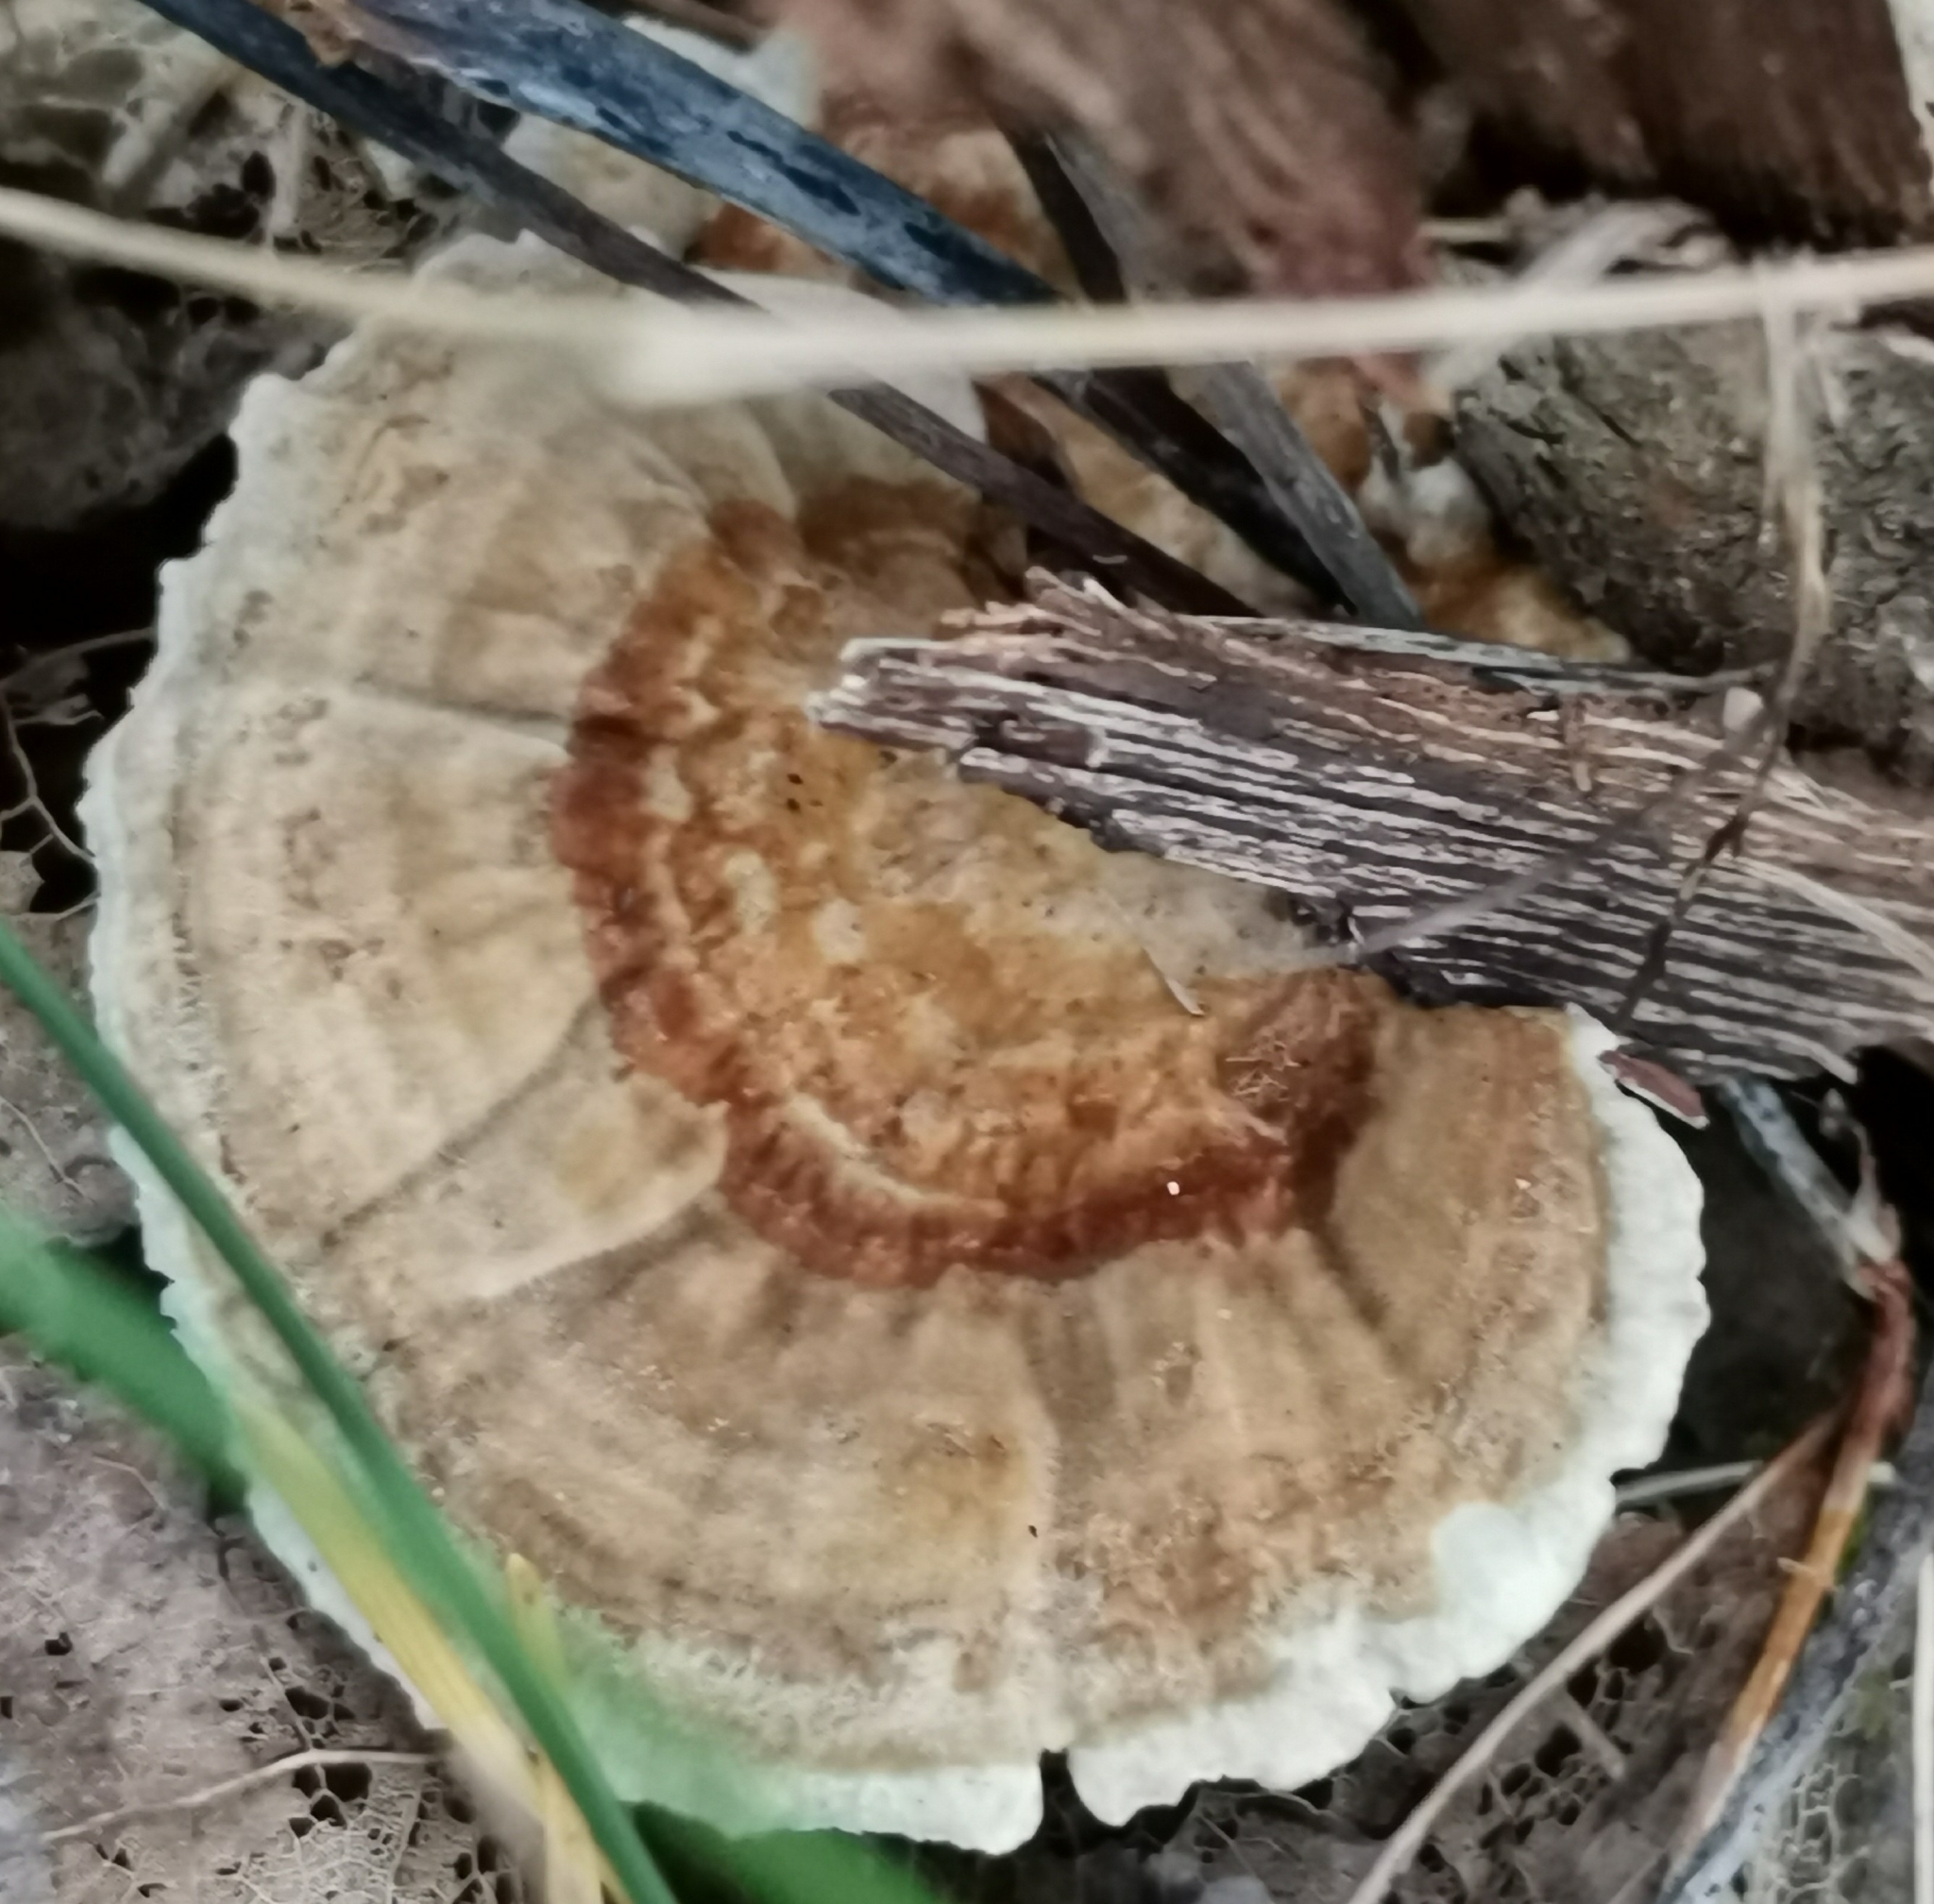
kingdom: Fungi
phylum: Basidiomycota
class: Agaricomycetes
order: Polyporales
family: Polyporaceae
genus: Trametes
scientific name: Trametes ochracea
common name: Ochre bracket
